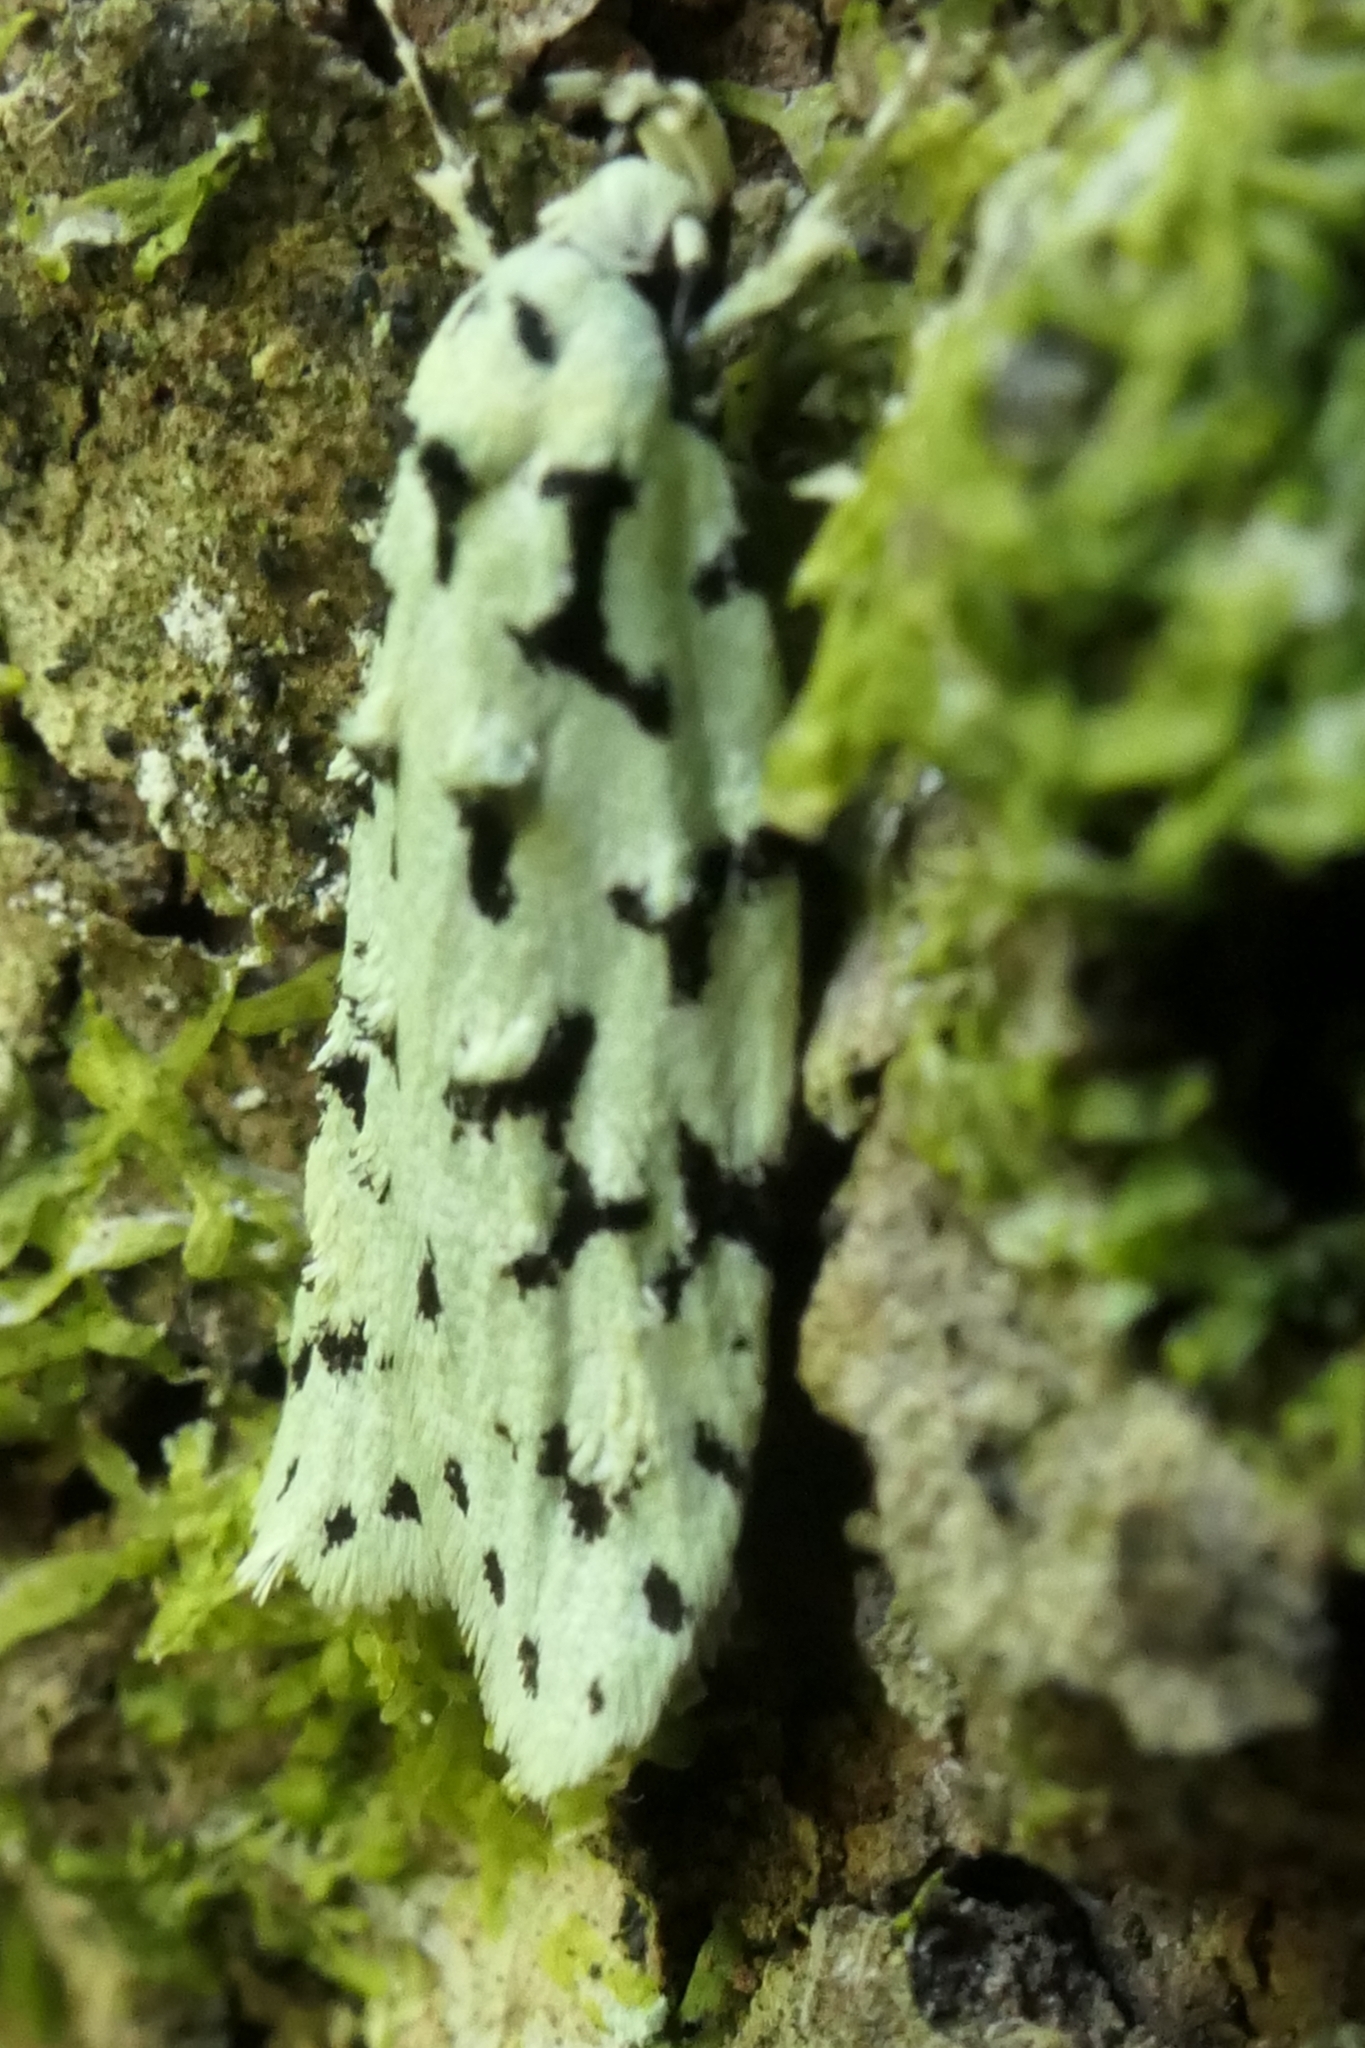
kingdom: Animalia
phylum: Arthropoda
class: Insecta
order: Lepidoptera
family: Oecophoridae
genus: Izatha
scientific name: Izatha huttoni
